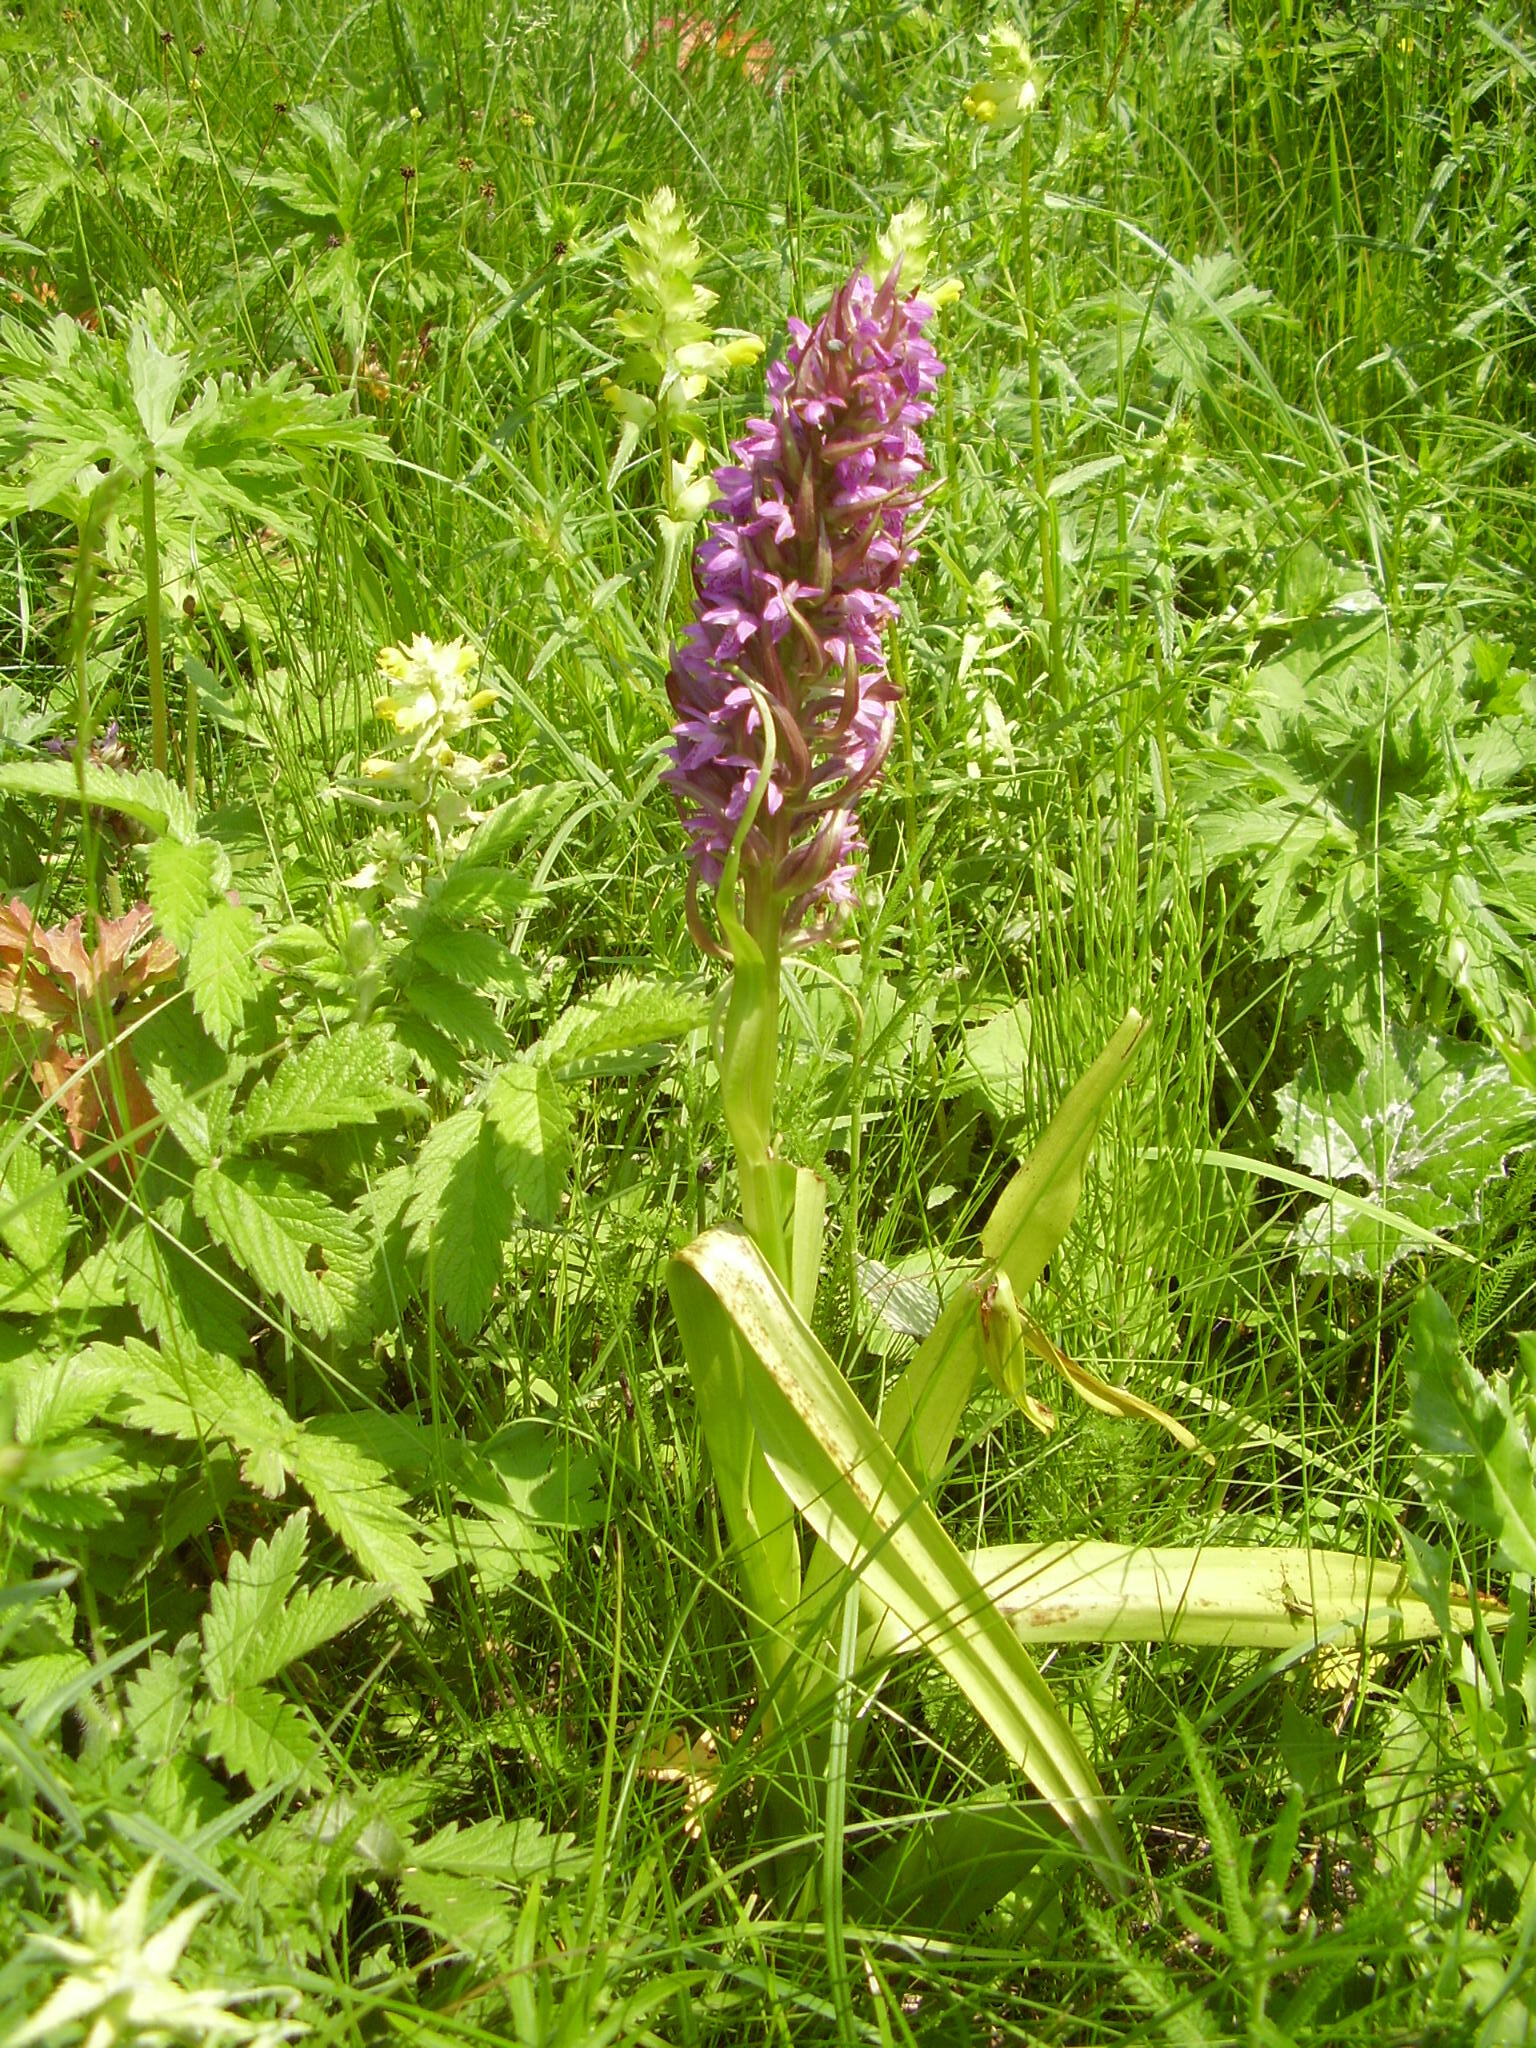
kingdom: Plantae
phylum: Tracheophyta
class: Liliopsida
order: Asparagales
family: Orchidaceae
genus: Dactylorhiza
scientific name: Dactylorhiza incarnata
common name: Early marsh-orchid
